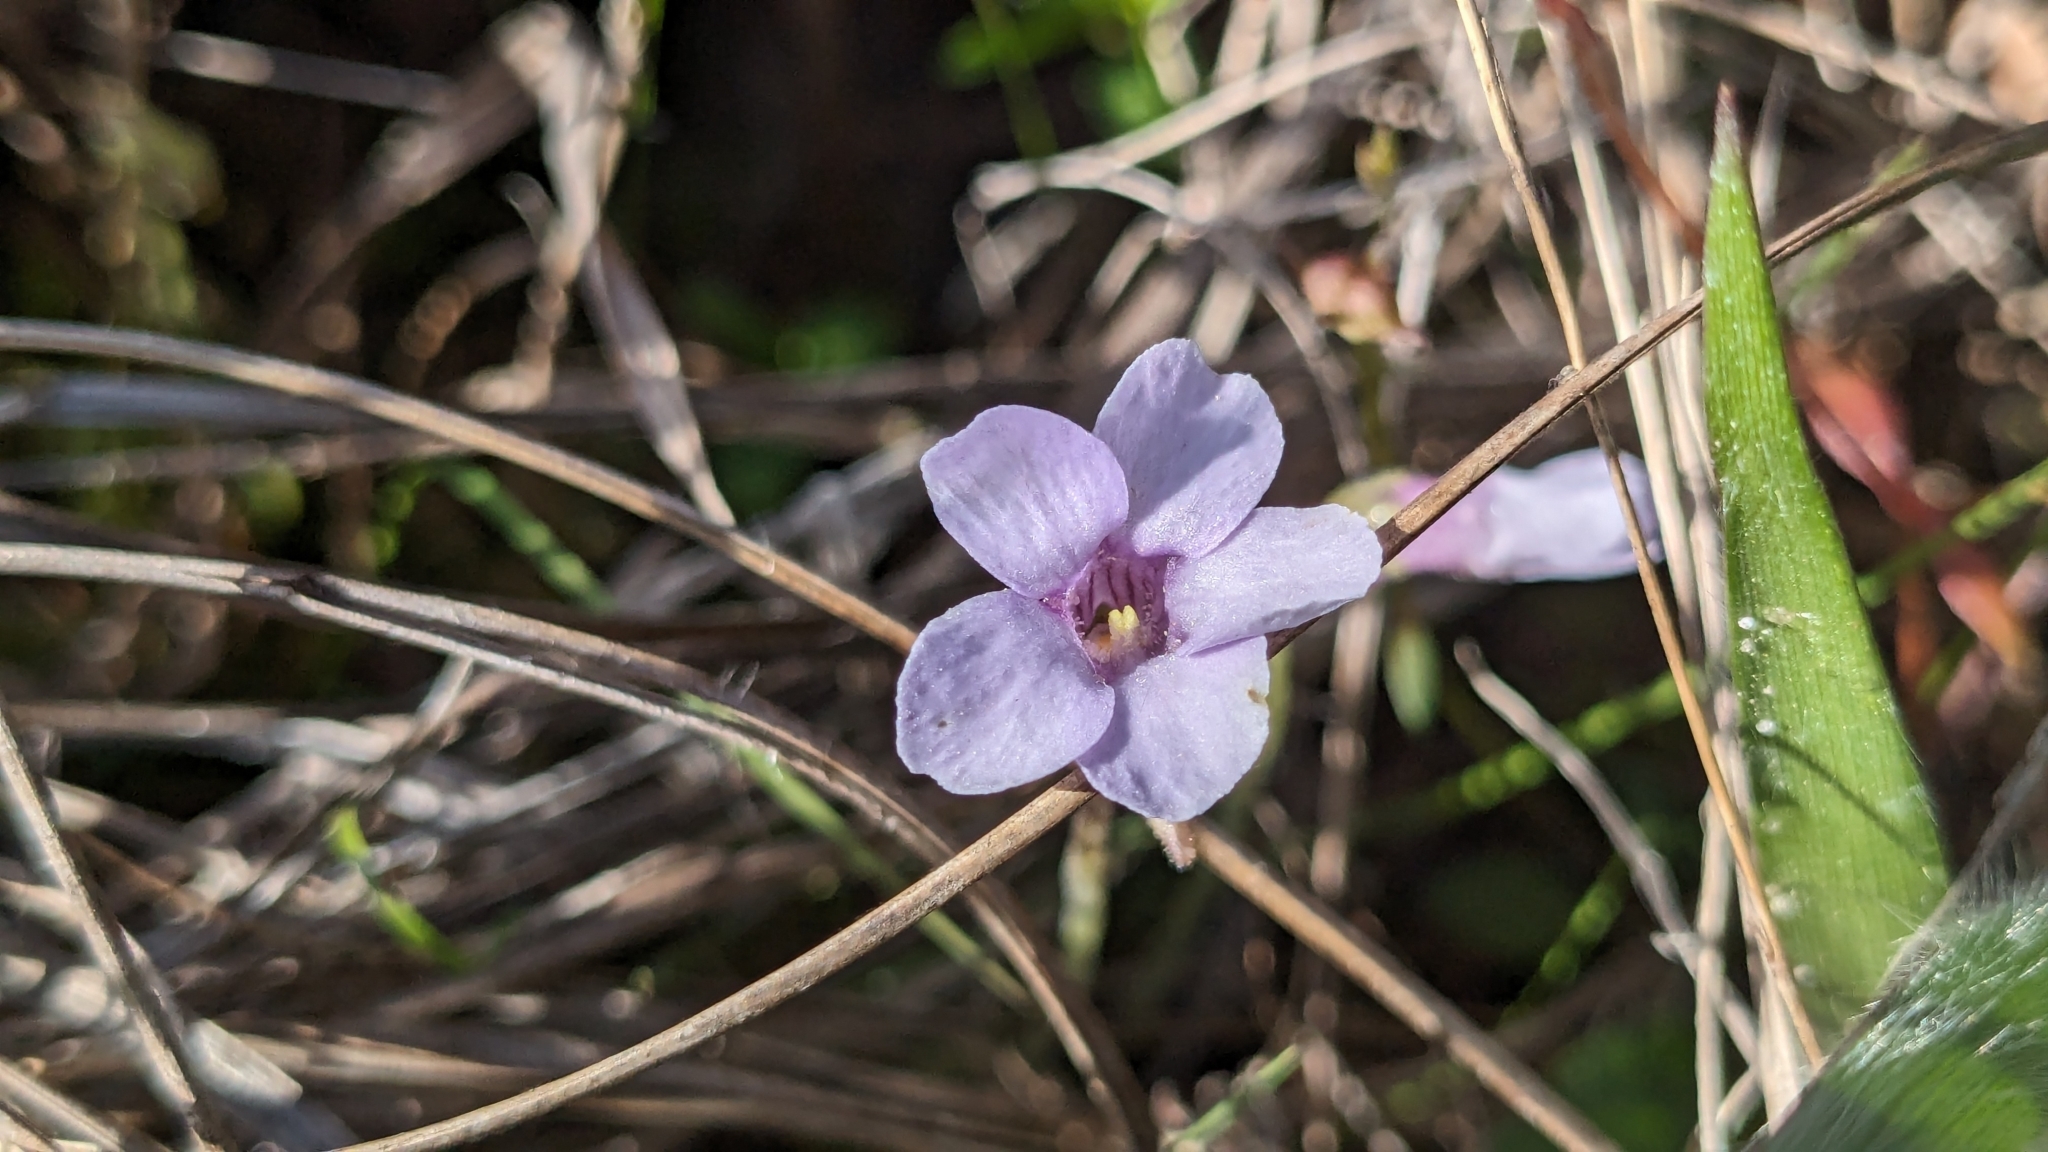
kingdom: Plantae
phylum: Tracheophyta
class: Magnoliopsida
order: Lamiales
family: Lentibulariaceae
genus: Pinguicula
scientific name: Pinguicula pumila
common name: Small butterwort
